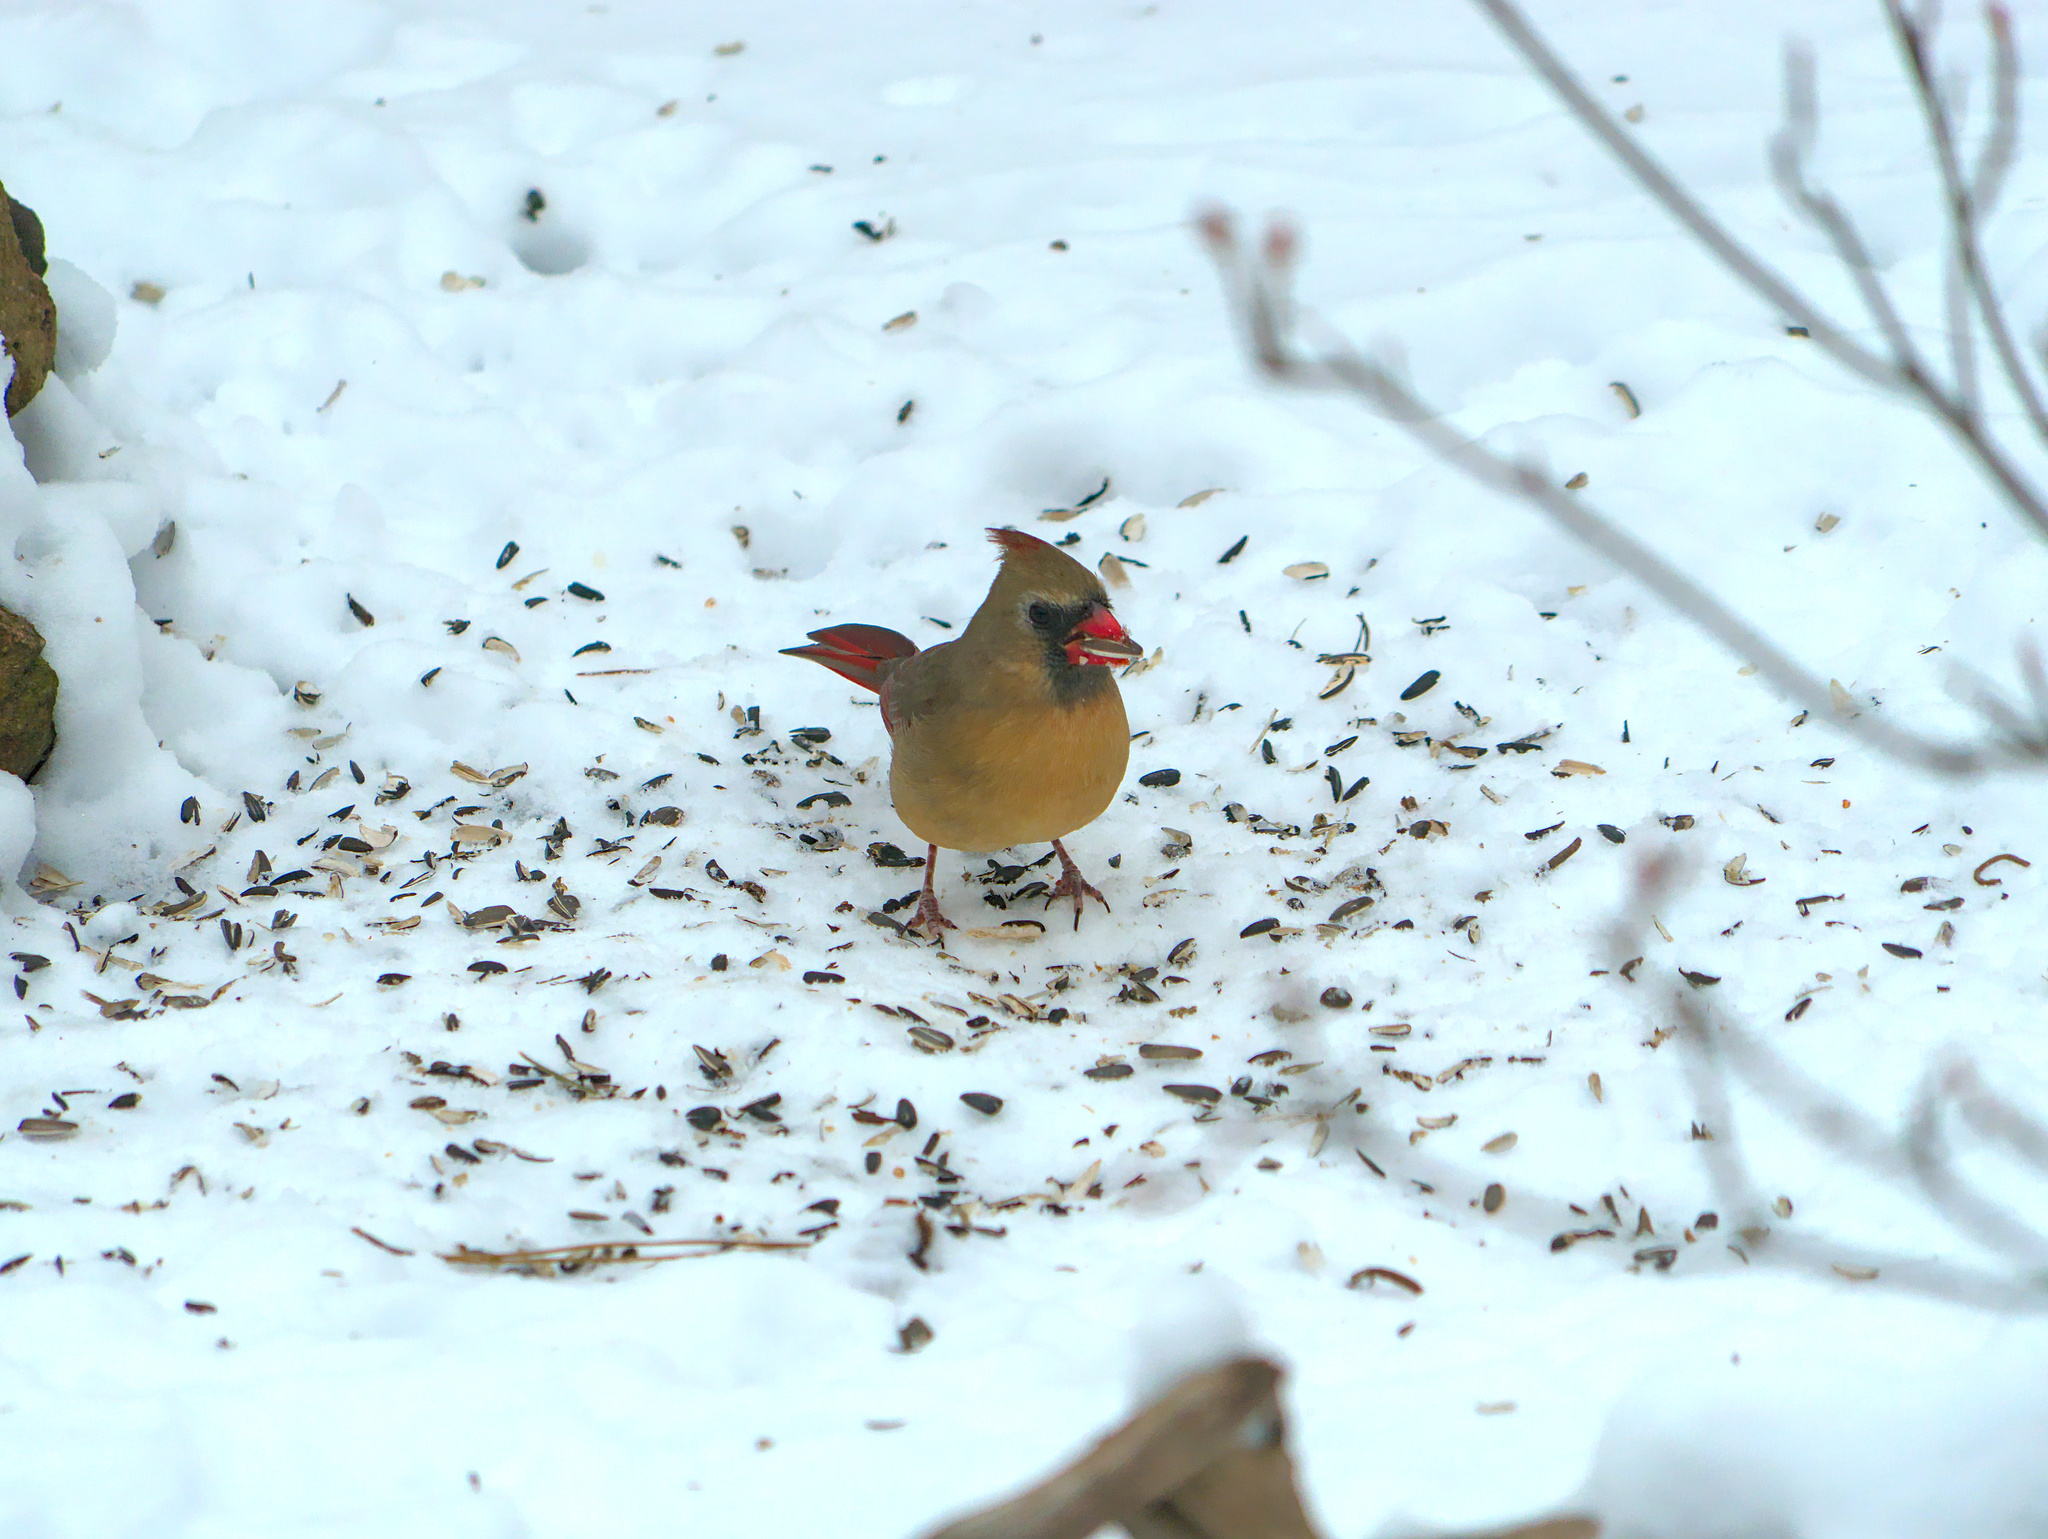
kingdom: Animalia
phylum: Chordata
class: Aves
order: Passeriformes
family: Cardinalidae
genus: Cardinalis
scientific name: Cardinalis cardinalis
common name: Northern cardinal
